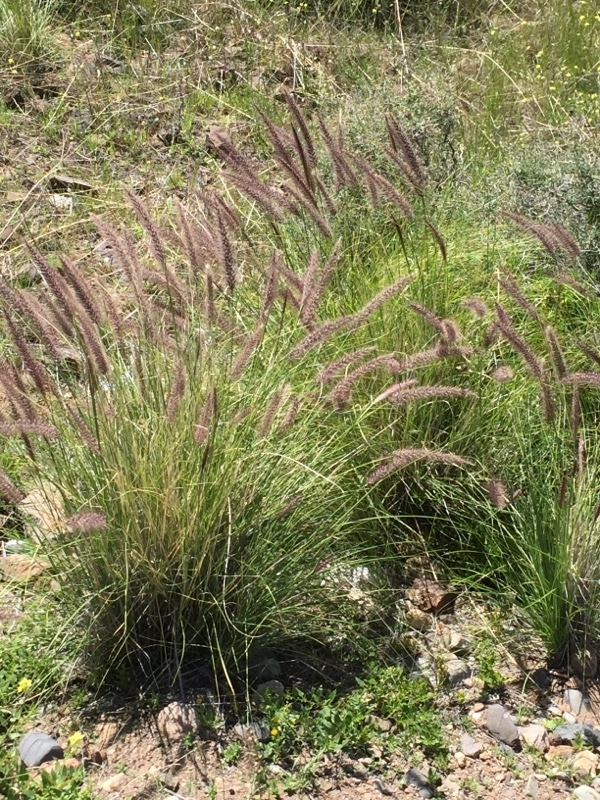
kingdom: Plantae
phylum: Tracheophyta
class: Liliopsida
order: Poales
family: Poaceae
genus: Cenchrus
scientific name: Cenchrus setaceus
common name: Crimson fountaingrass
